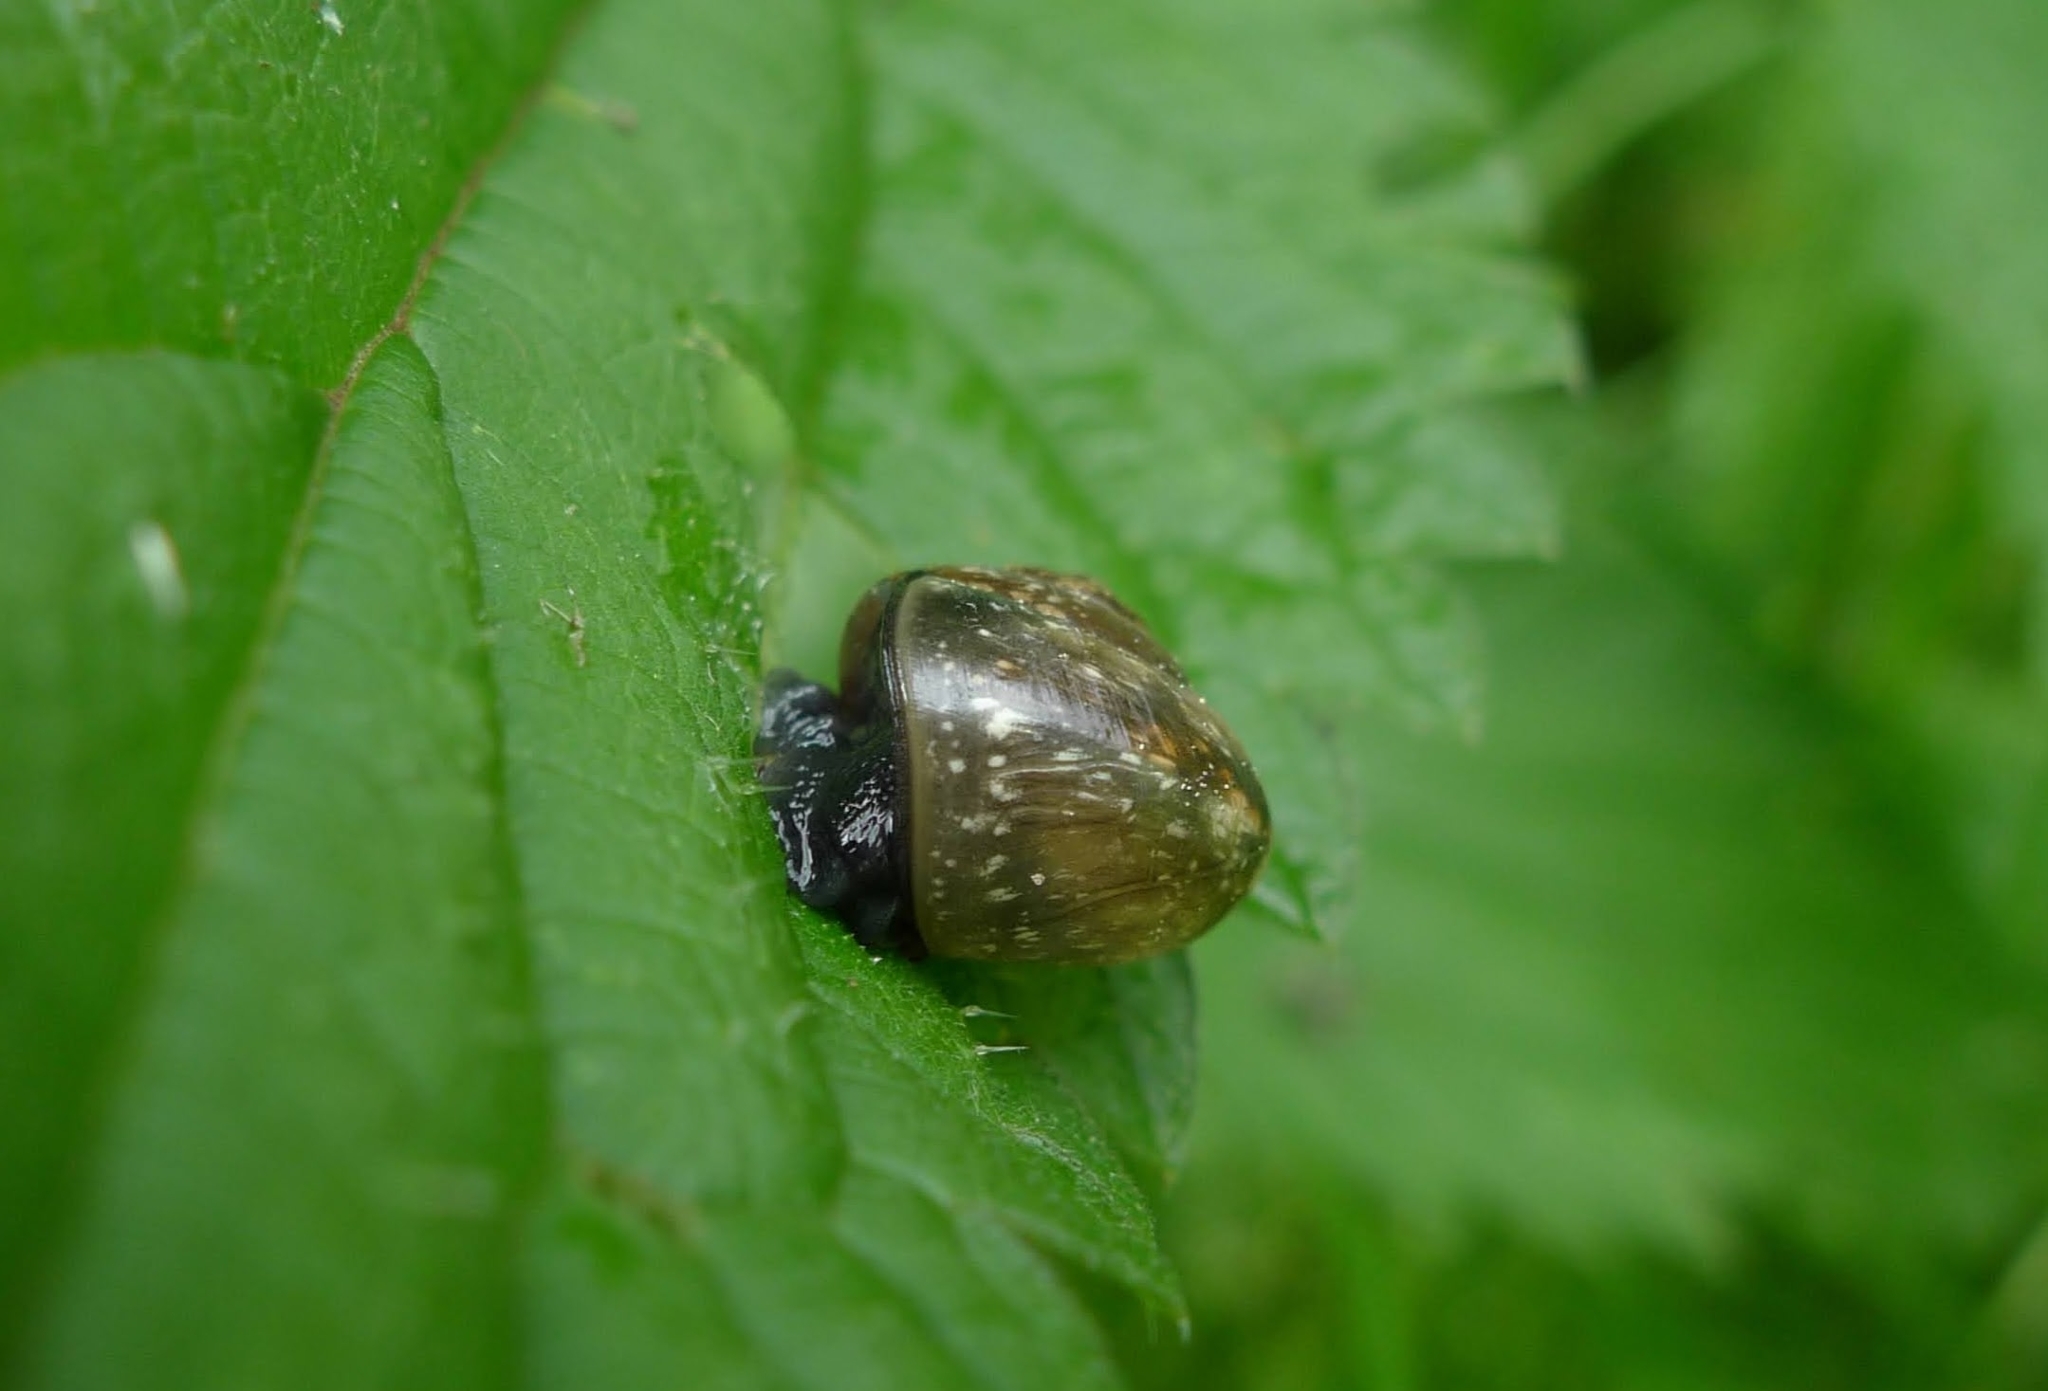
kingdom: Animalia
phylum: Mollusca
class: Gastropoda
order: Stylommatophora
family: Helicidae
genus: Arianta
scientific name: Arianta arbustorum
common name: Copse snail
